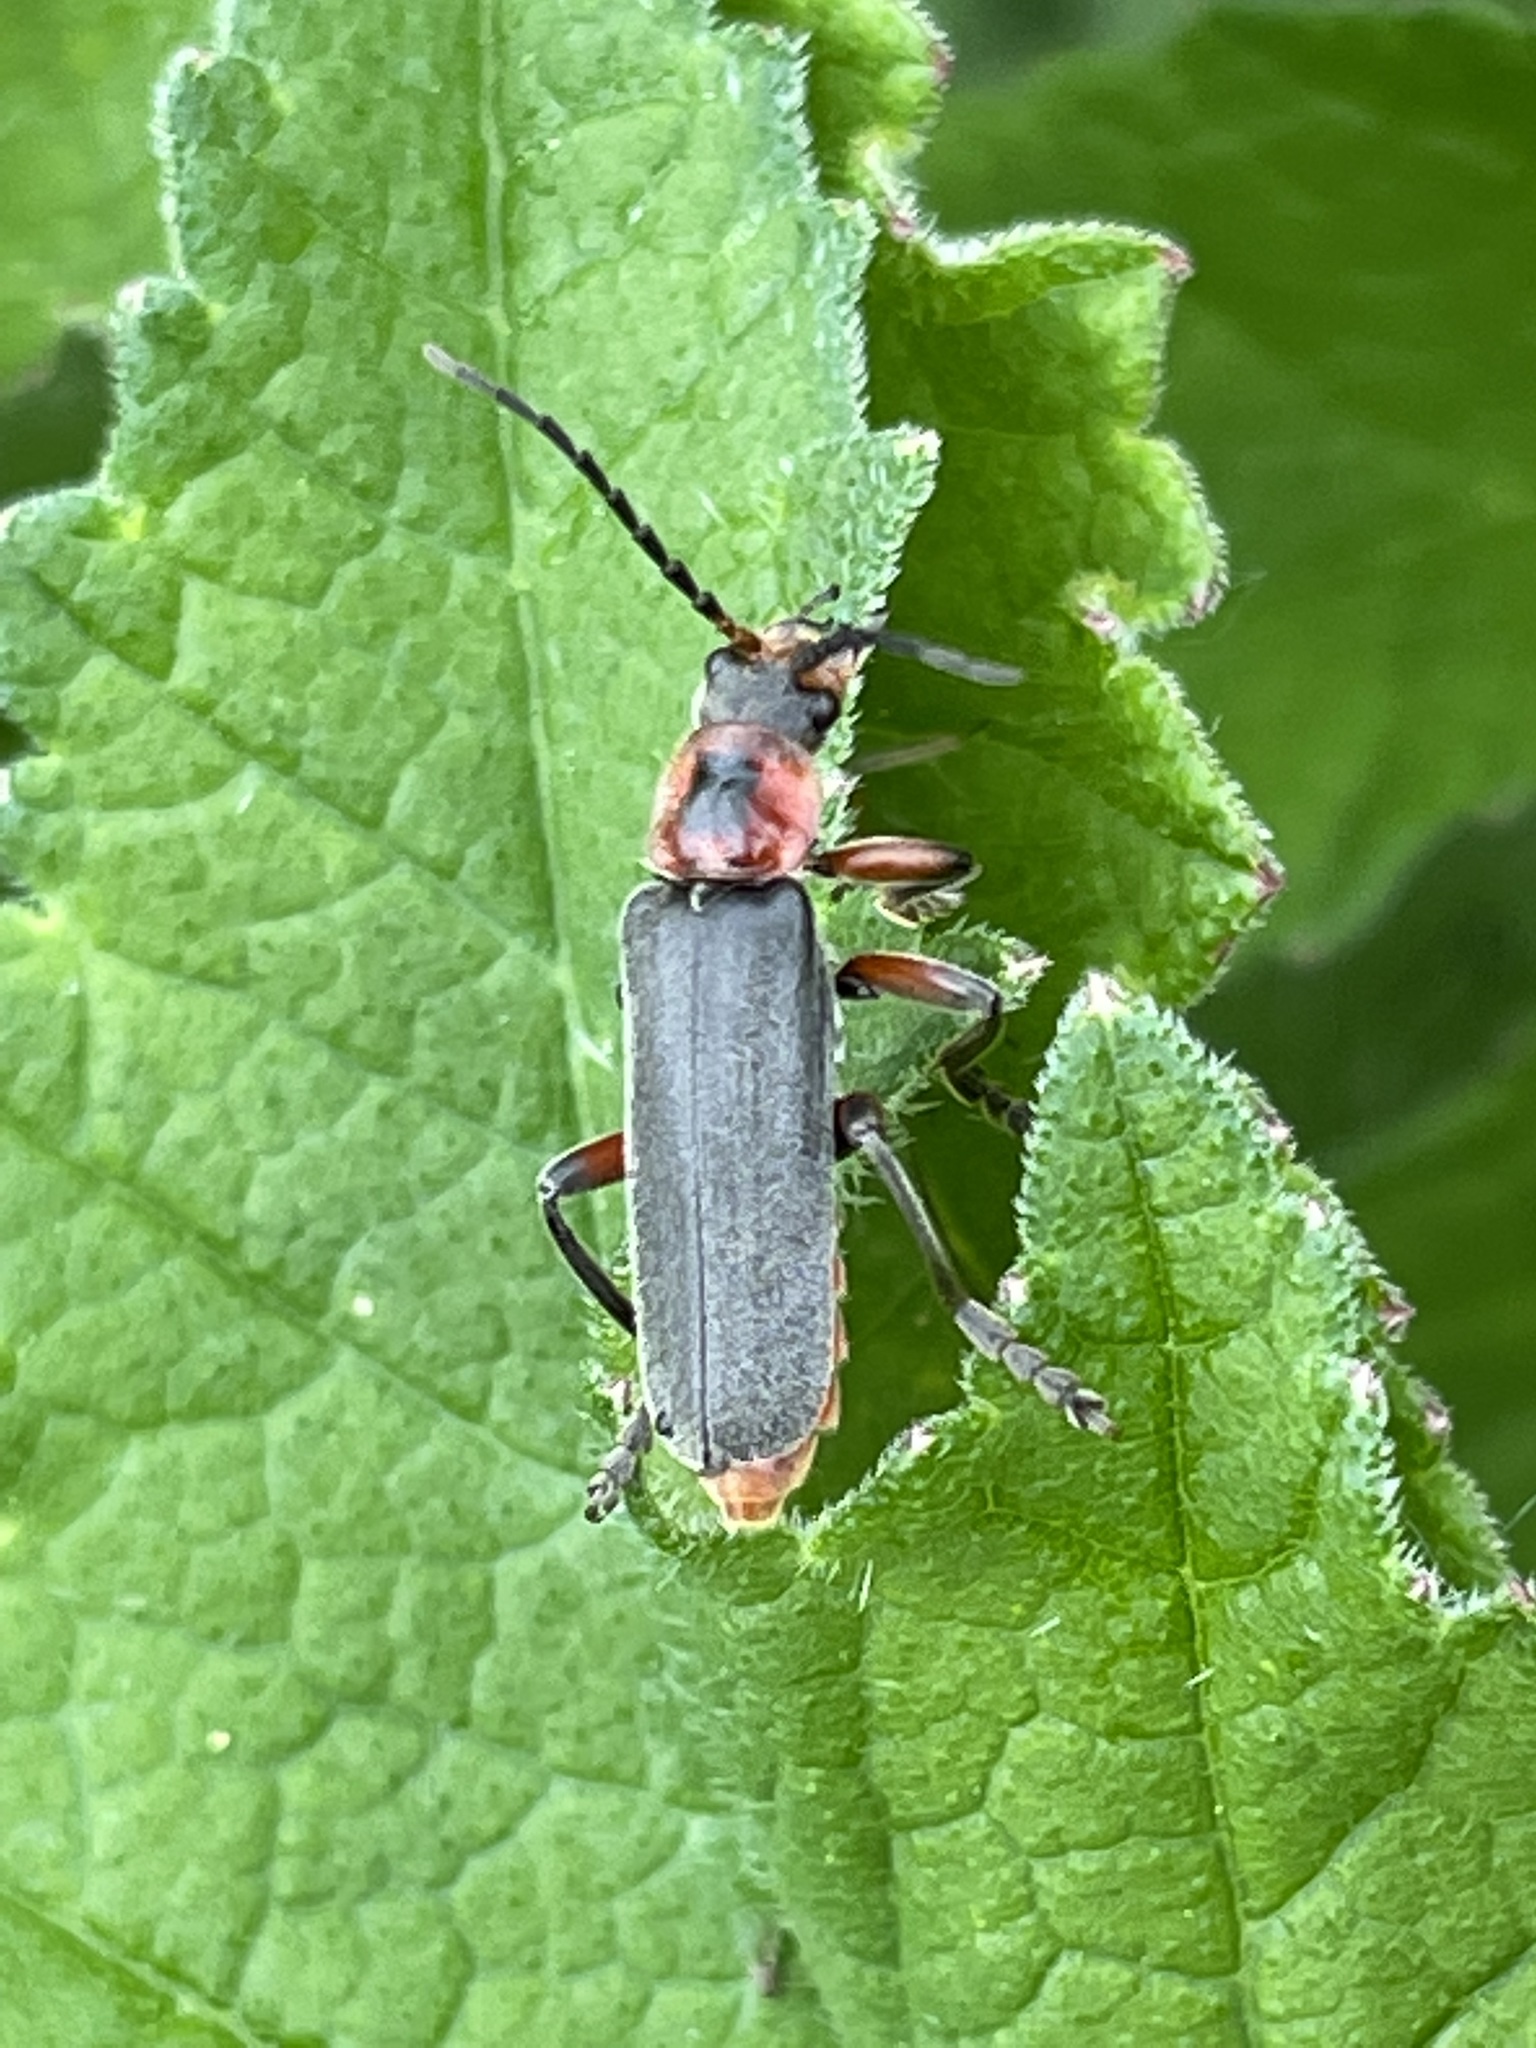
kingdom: Animalia
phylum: Arthropoda
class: Insecta
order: Coleoptera
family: Cantharidae
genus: Cantharis
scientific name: Cantharis rustica
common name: Soldier beetle
